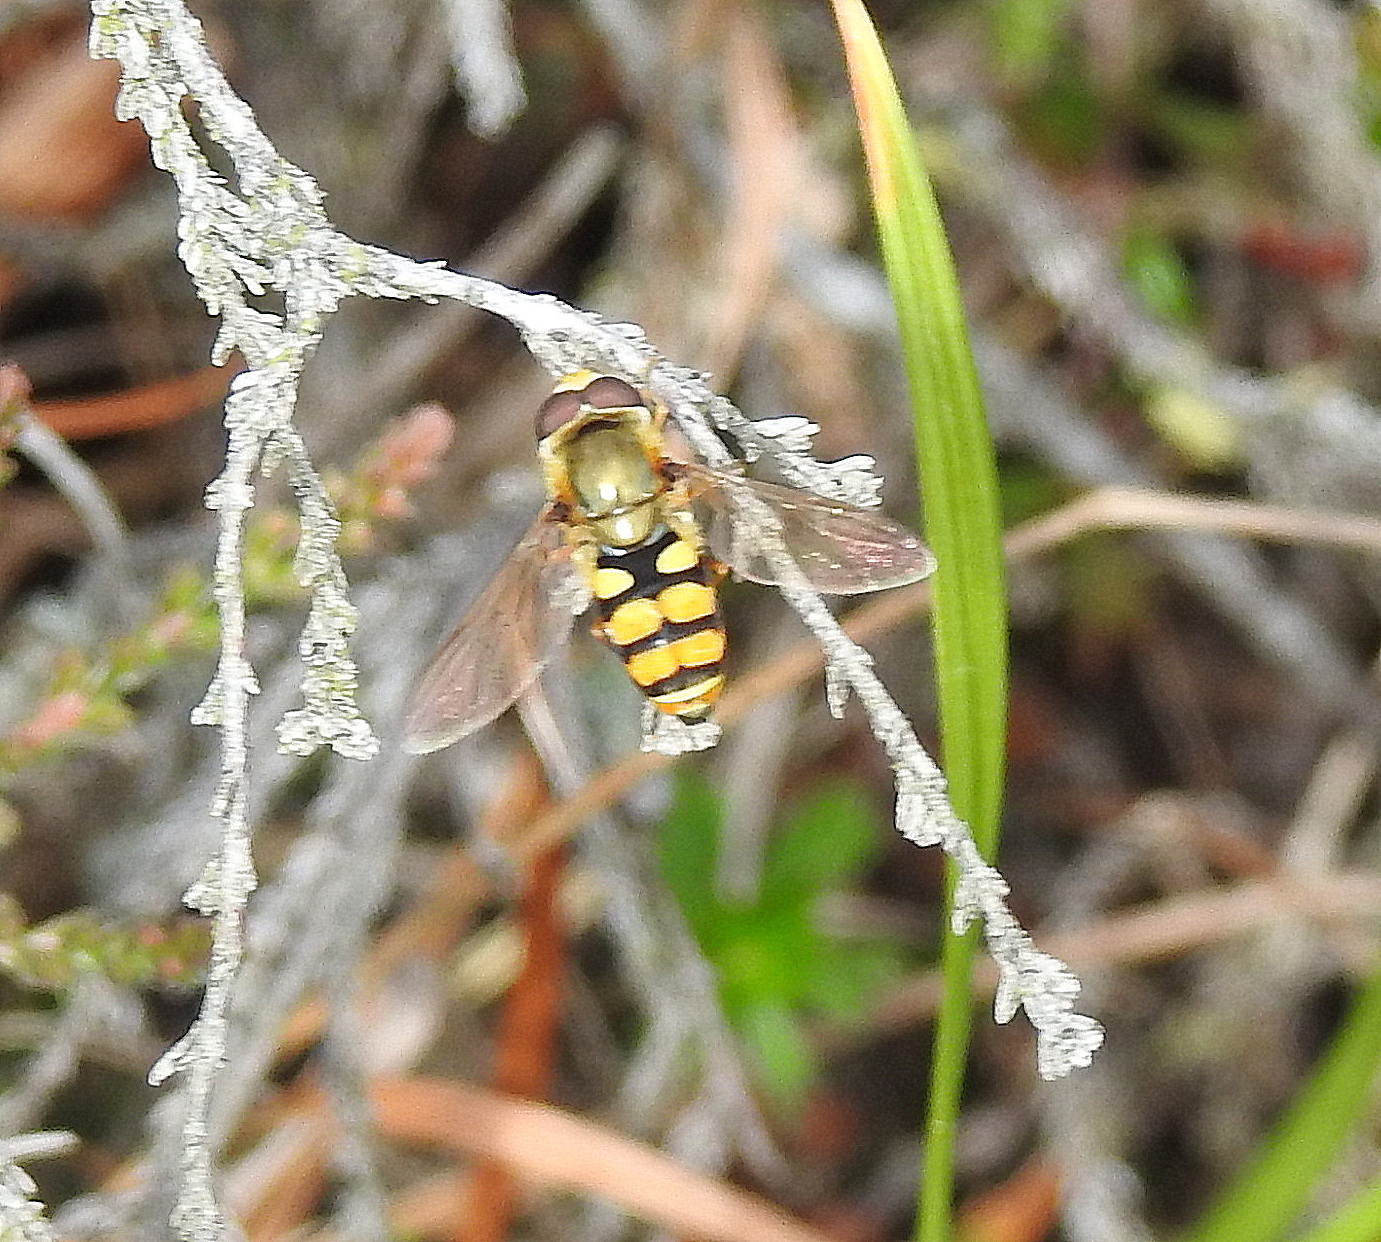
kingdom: Animalia
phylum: Arthropoda
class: Insecta
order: Diptera
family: Syrphidae
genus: Eupeodes
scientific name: Eupeodes corollae
